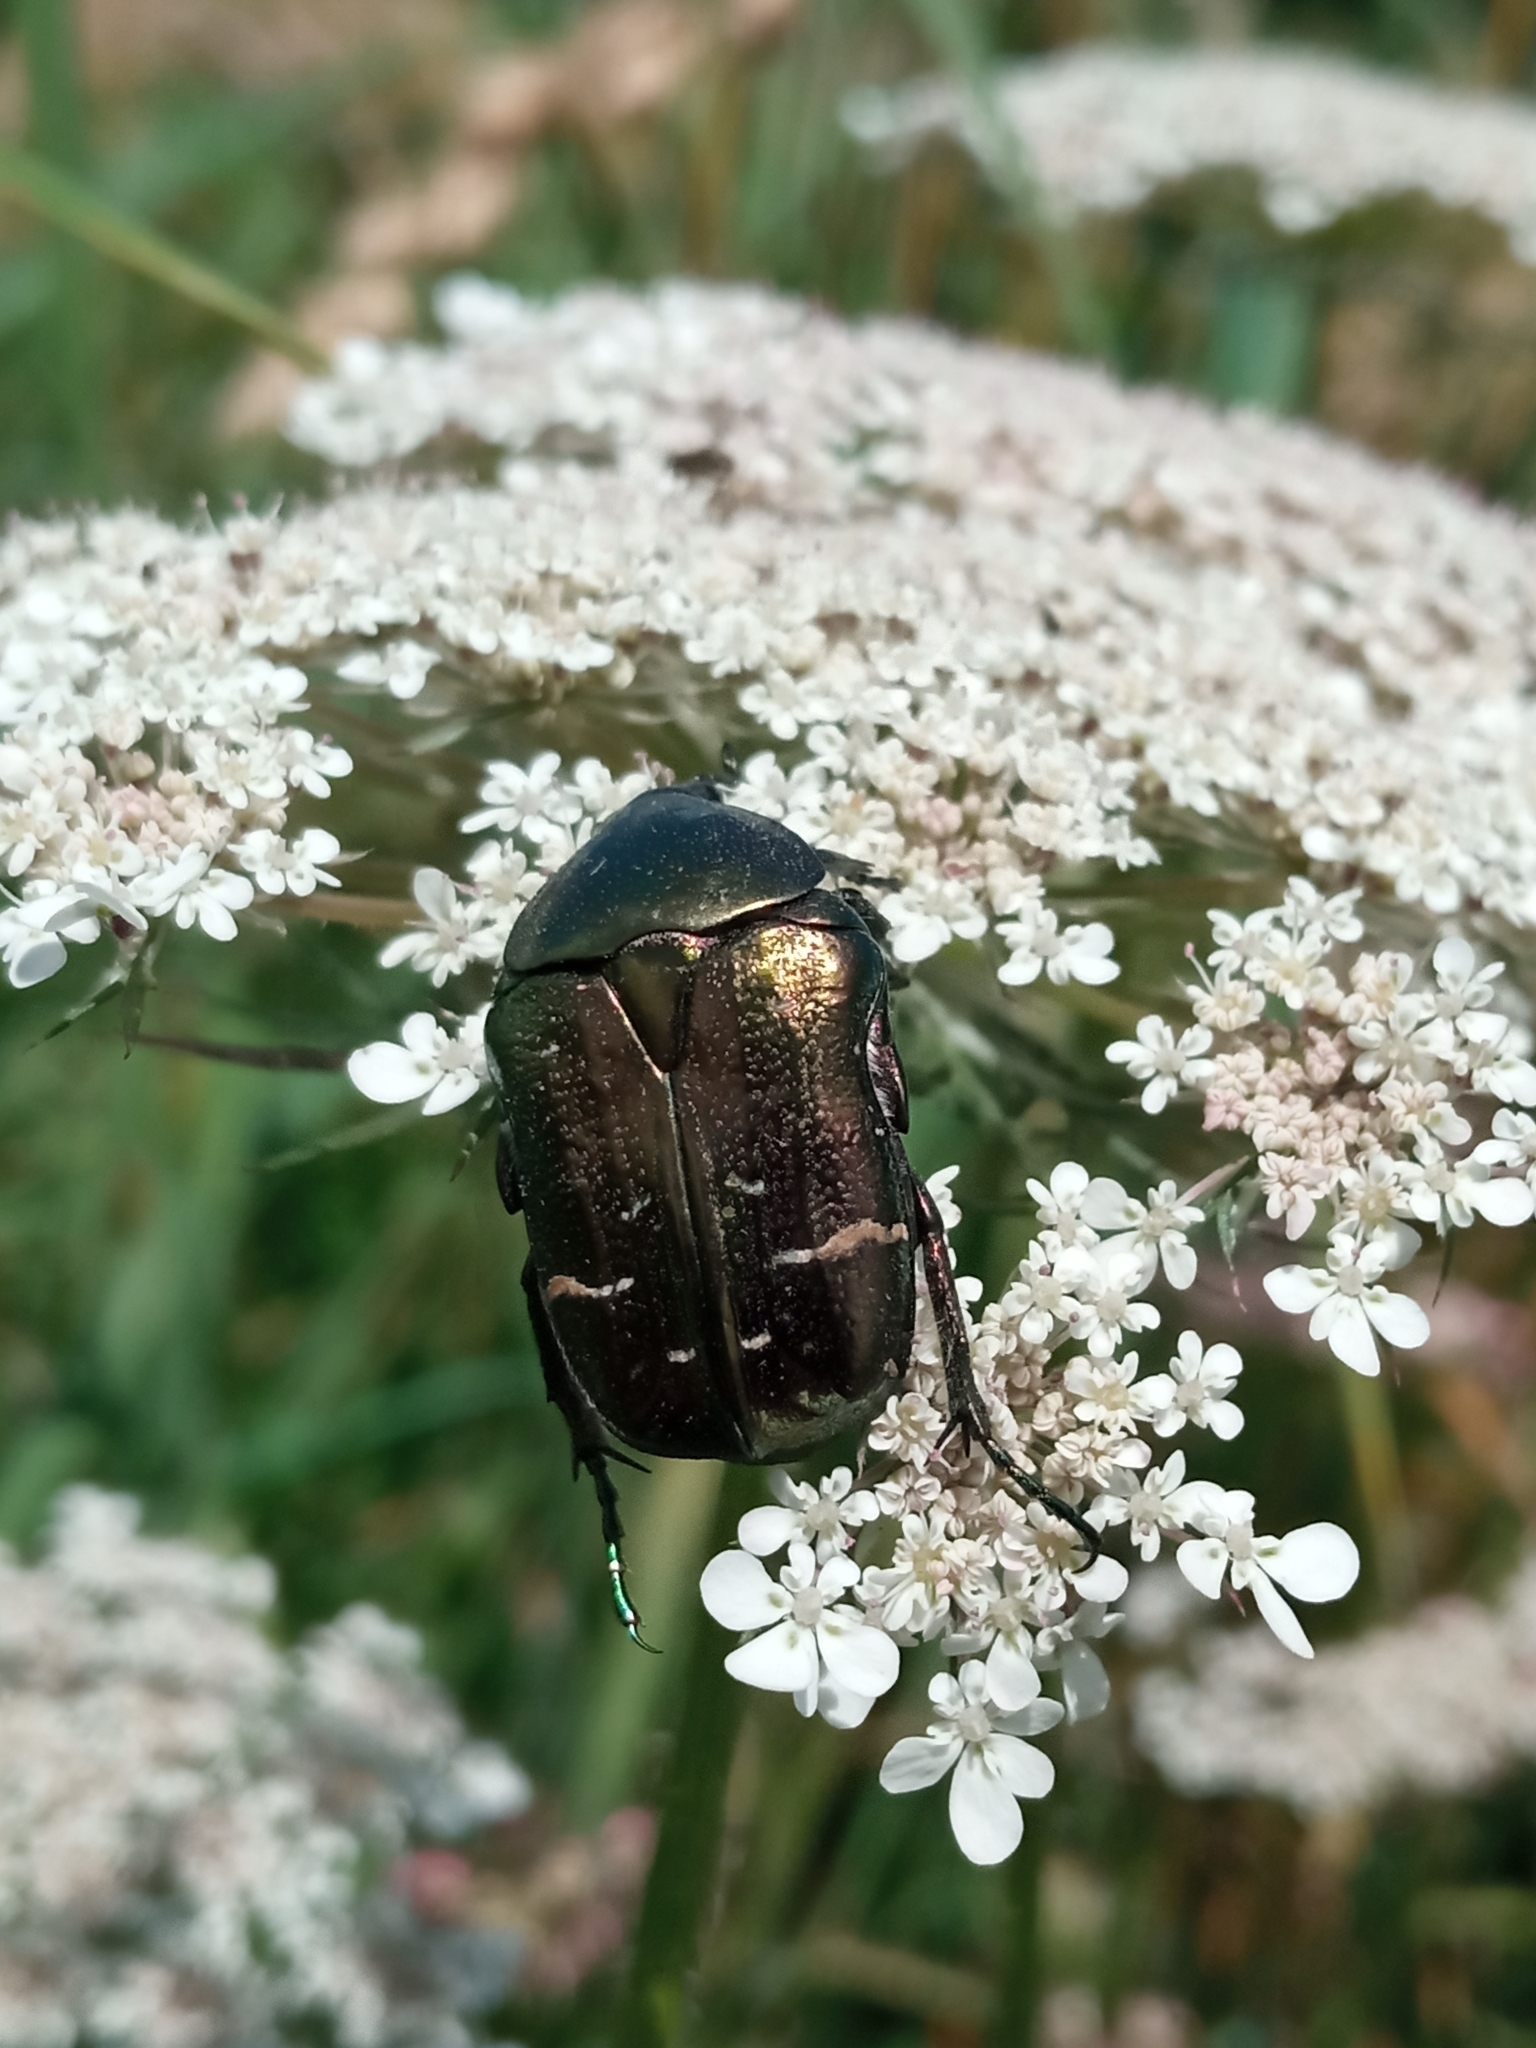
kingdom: Animalia
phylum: Arthropoda
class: Insecta
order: Coleoptera
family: Scarabaeidae
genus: Cetonia
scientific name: Cetonia aurata
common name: Rose chafer
